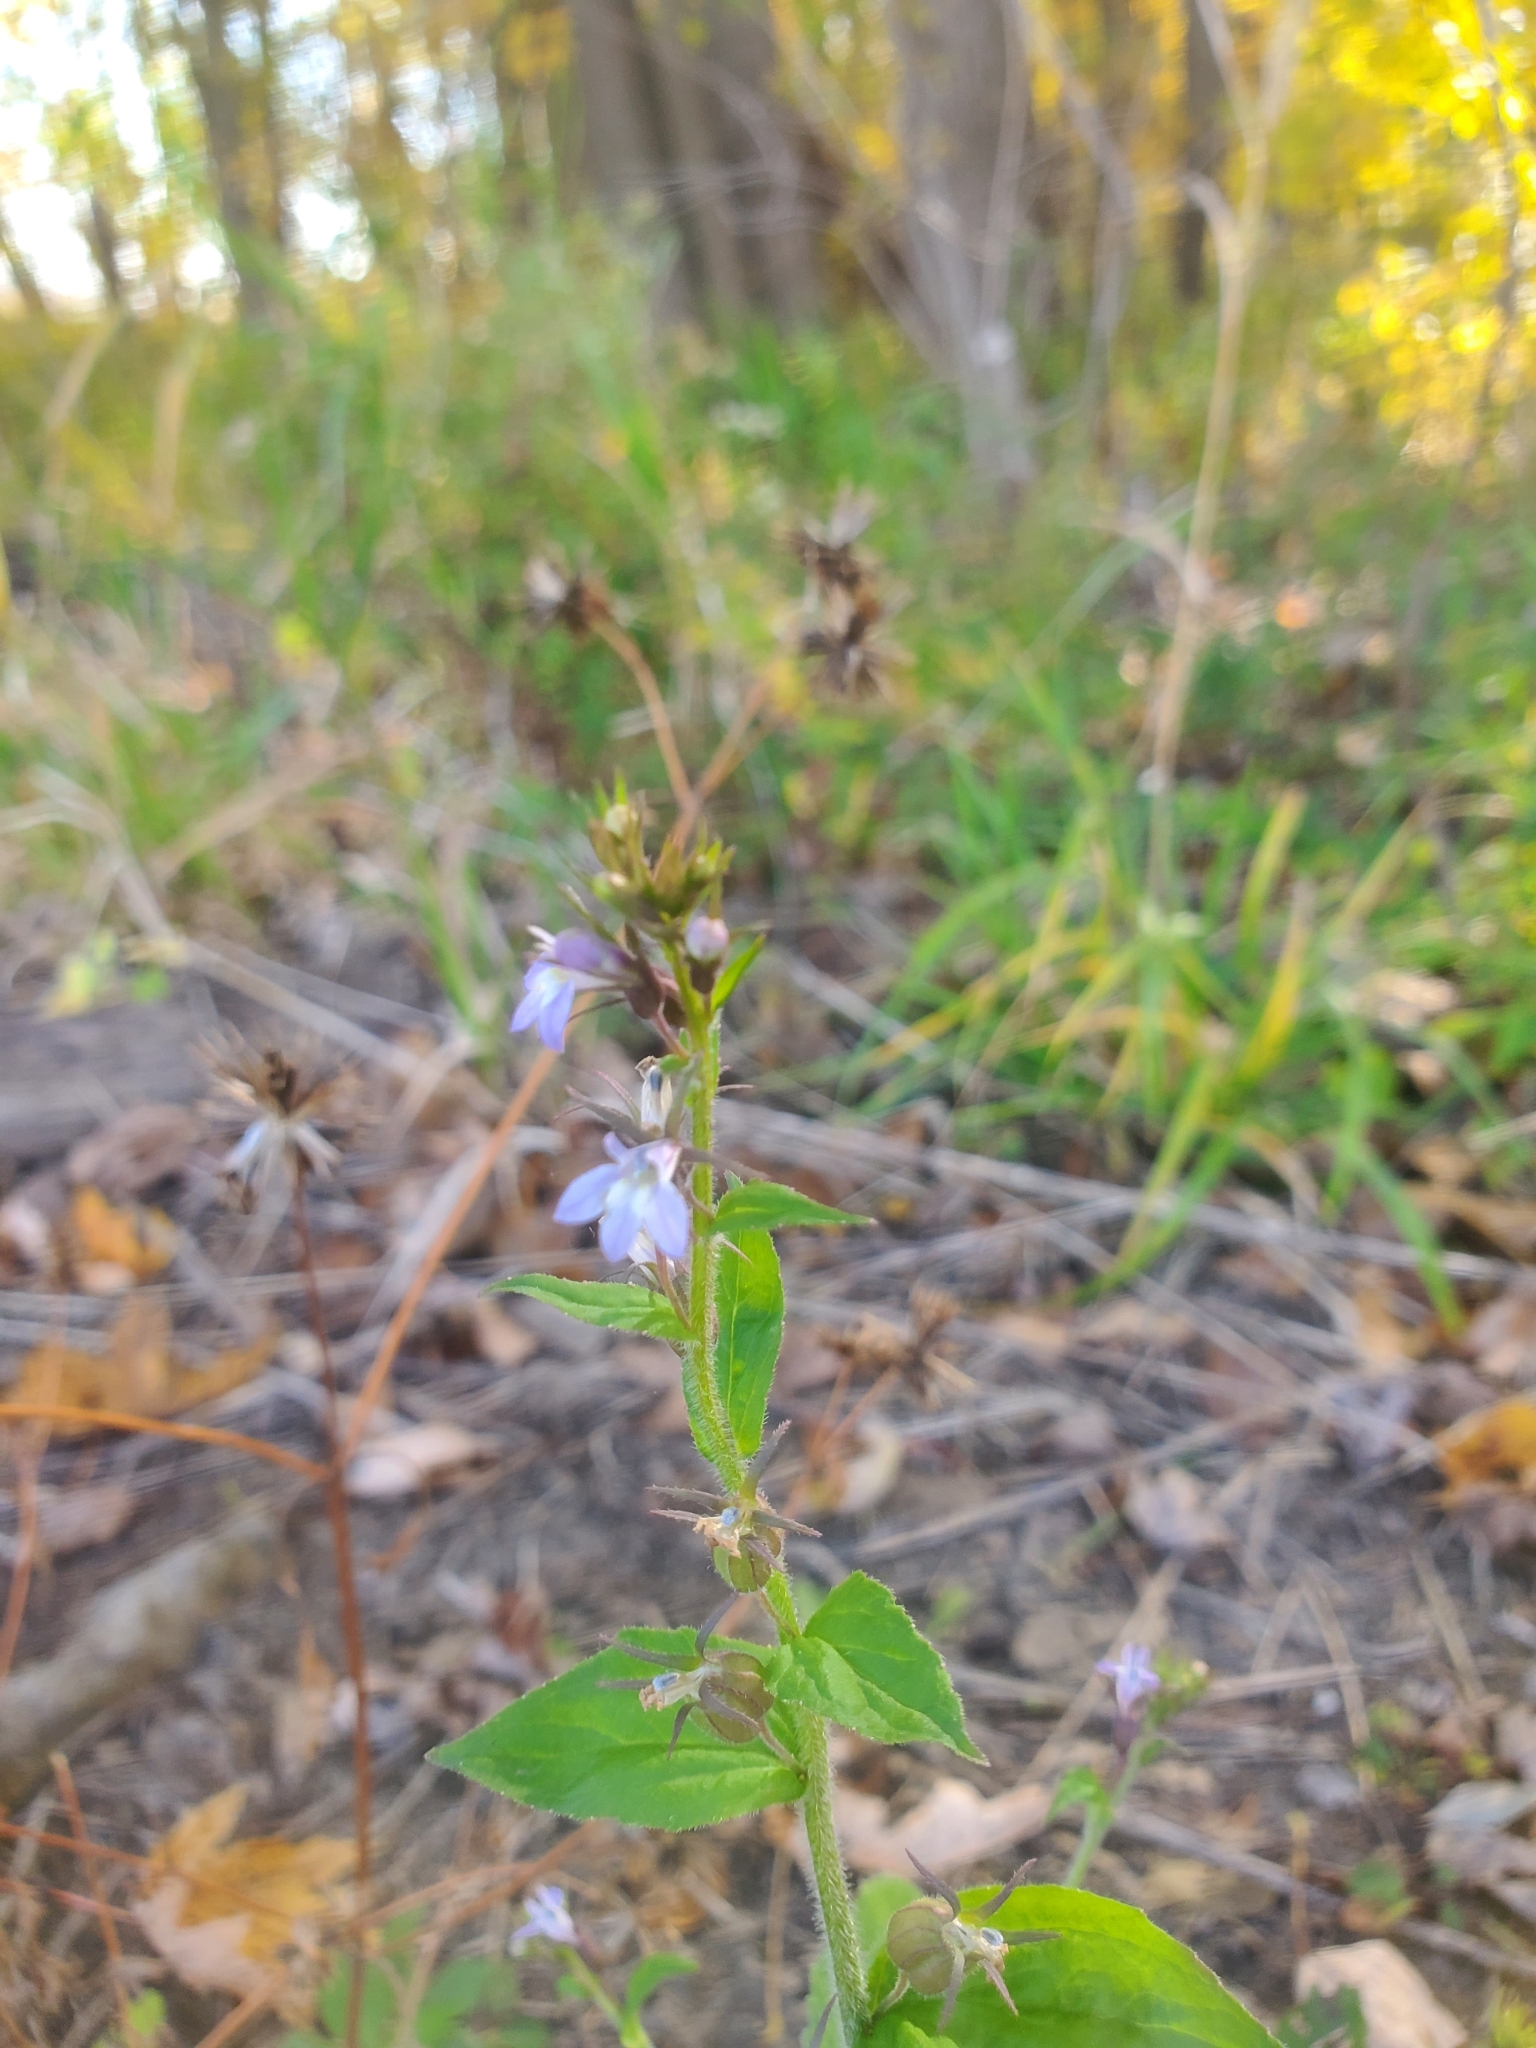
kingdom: Plantae
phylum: Tracheophyta
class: Magnoliopsida
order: Asterales
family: Campanulaceae
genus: Lobelia
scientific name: Lobelia inflata
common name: Indian tobacco
